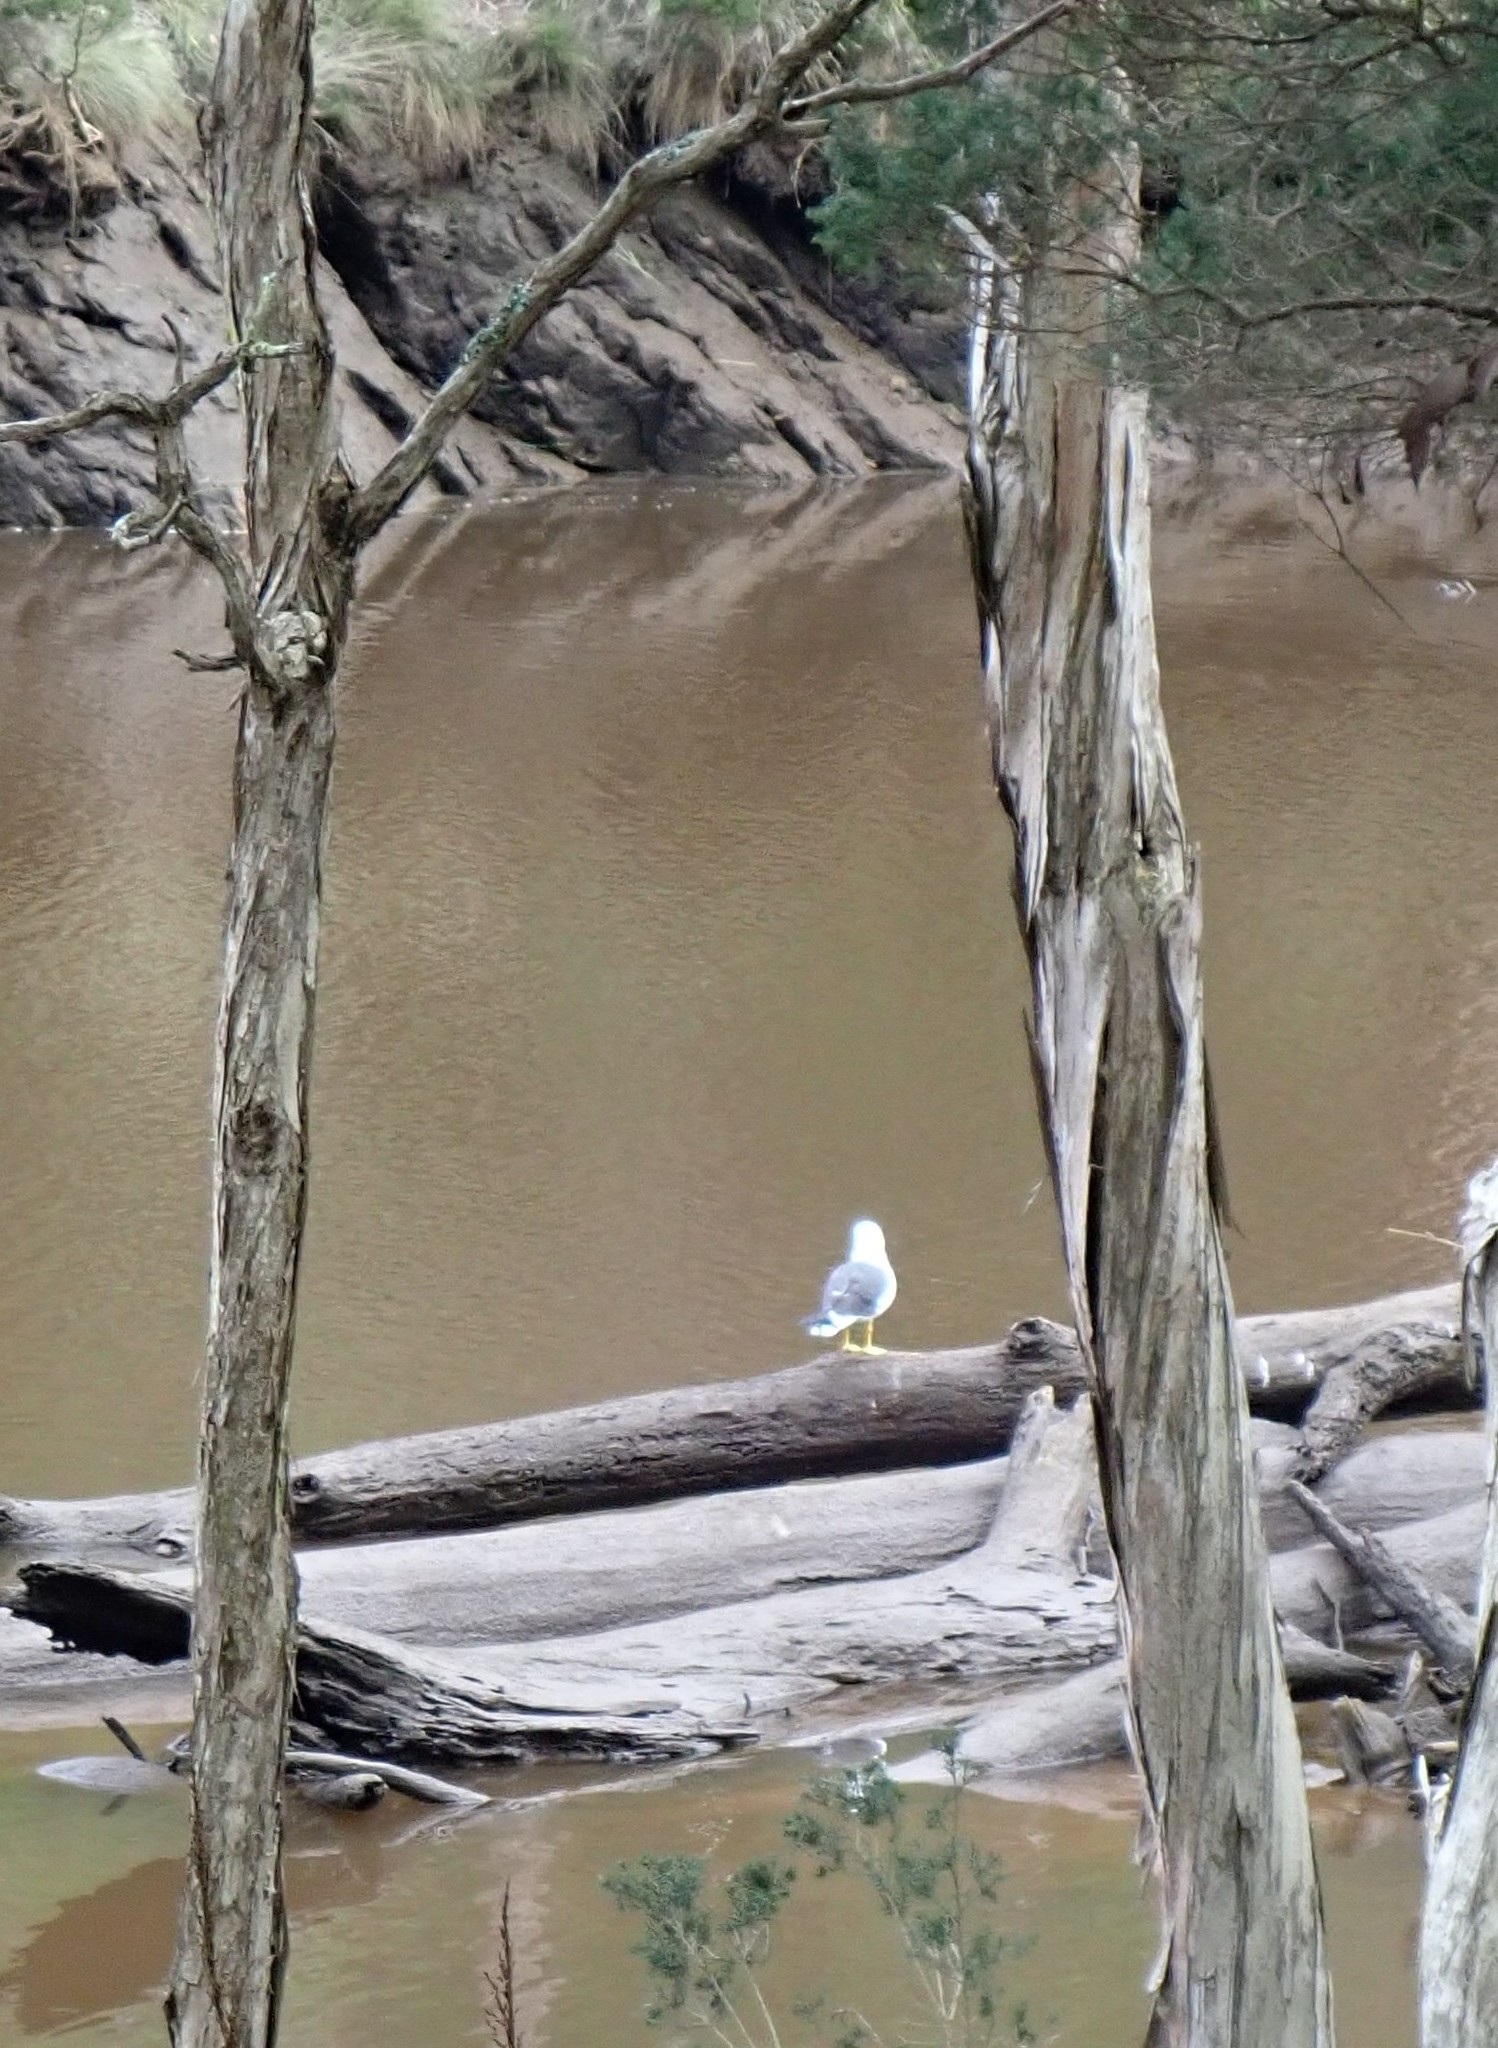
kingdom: Animalia
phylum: Chordata
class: Aves
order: Charadriiformes
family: Laridae
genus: Larus
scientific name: Larus pacificus
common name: Pacific gull
